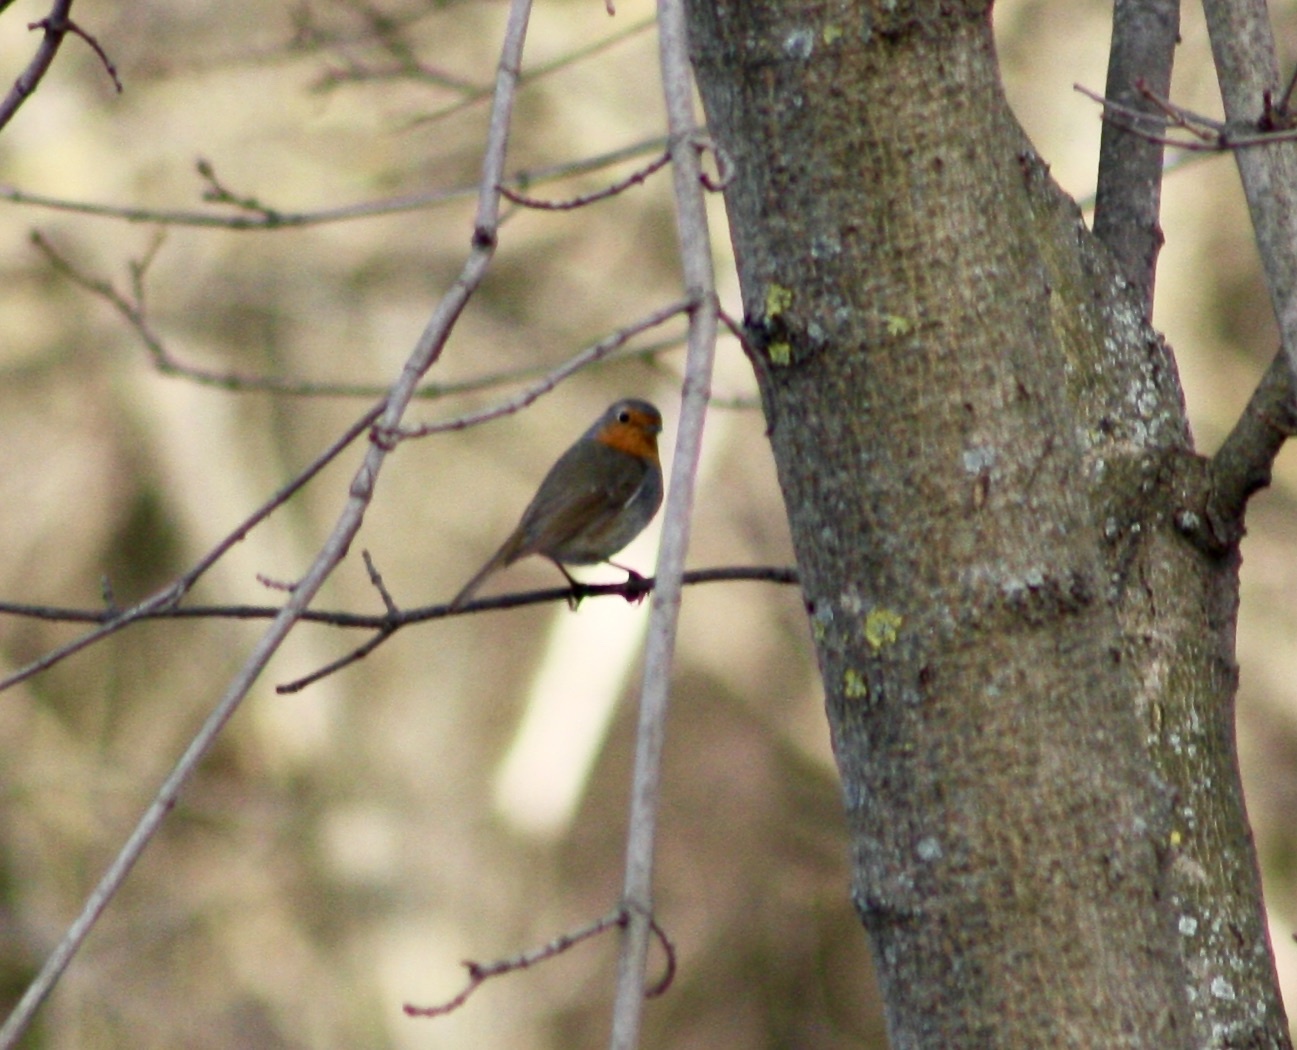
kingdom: Animalia
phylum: Chordata
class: Aves
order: Passeriformes
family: Muscicapidae
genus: Erithacus
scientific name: Erithacus rubecula
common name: European robin
